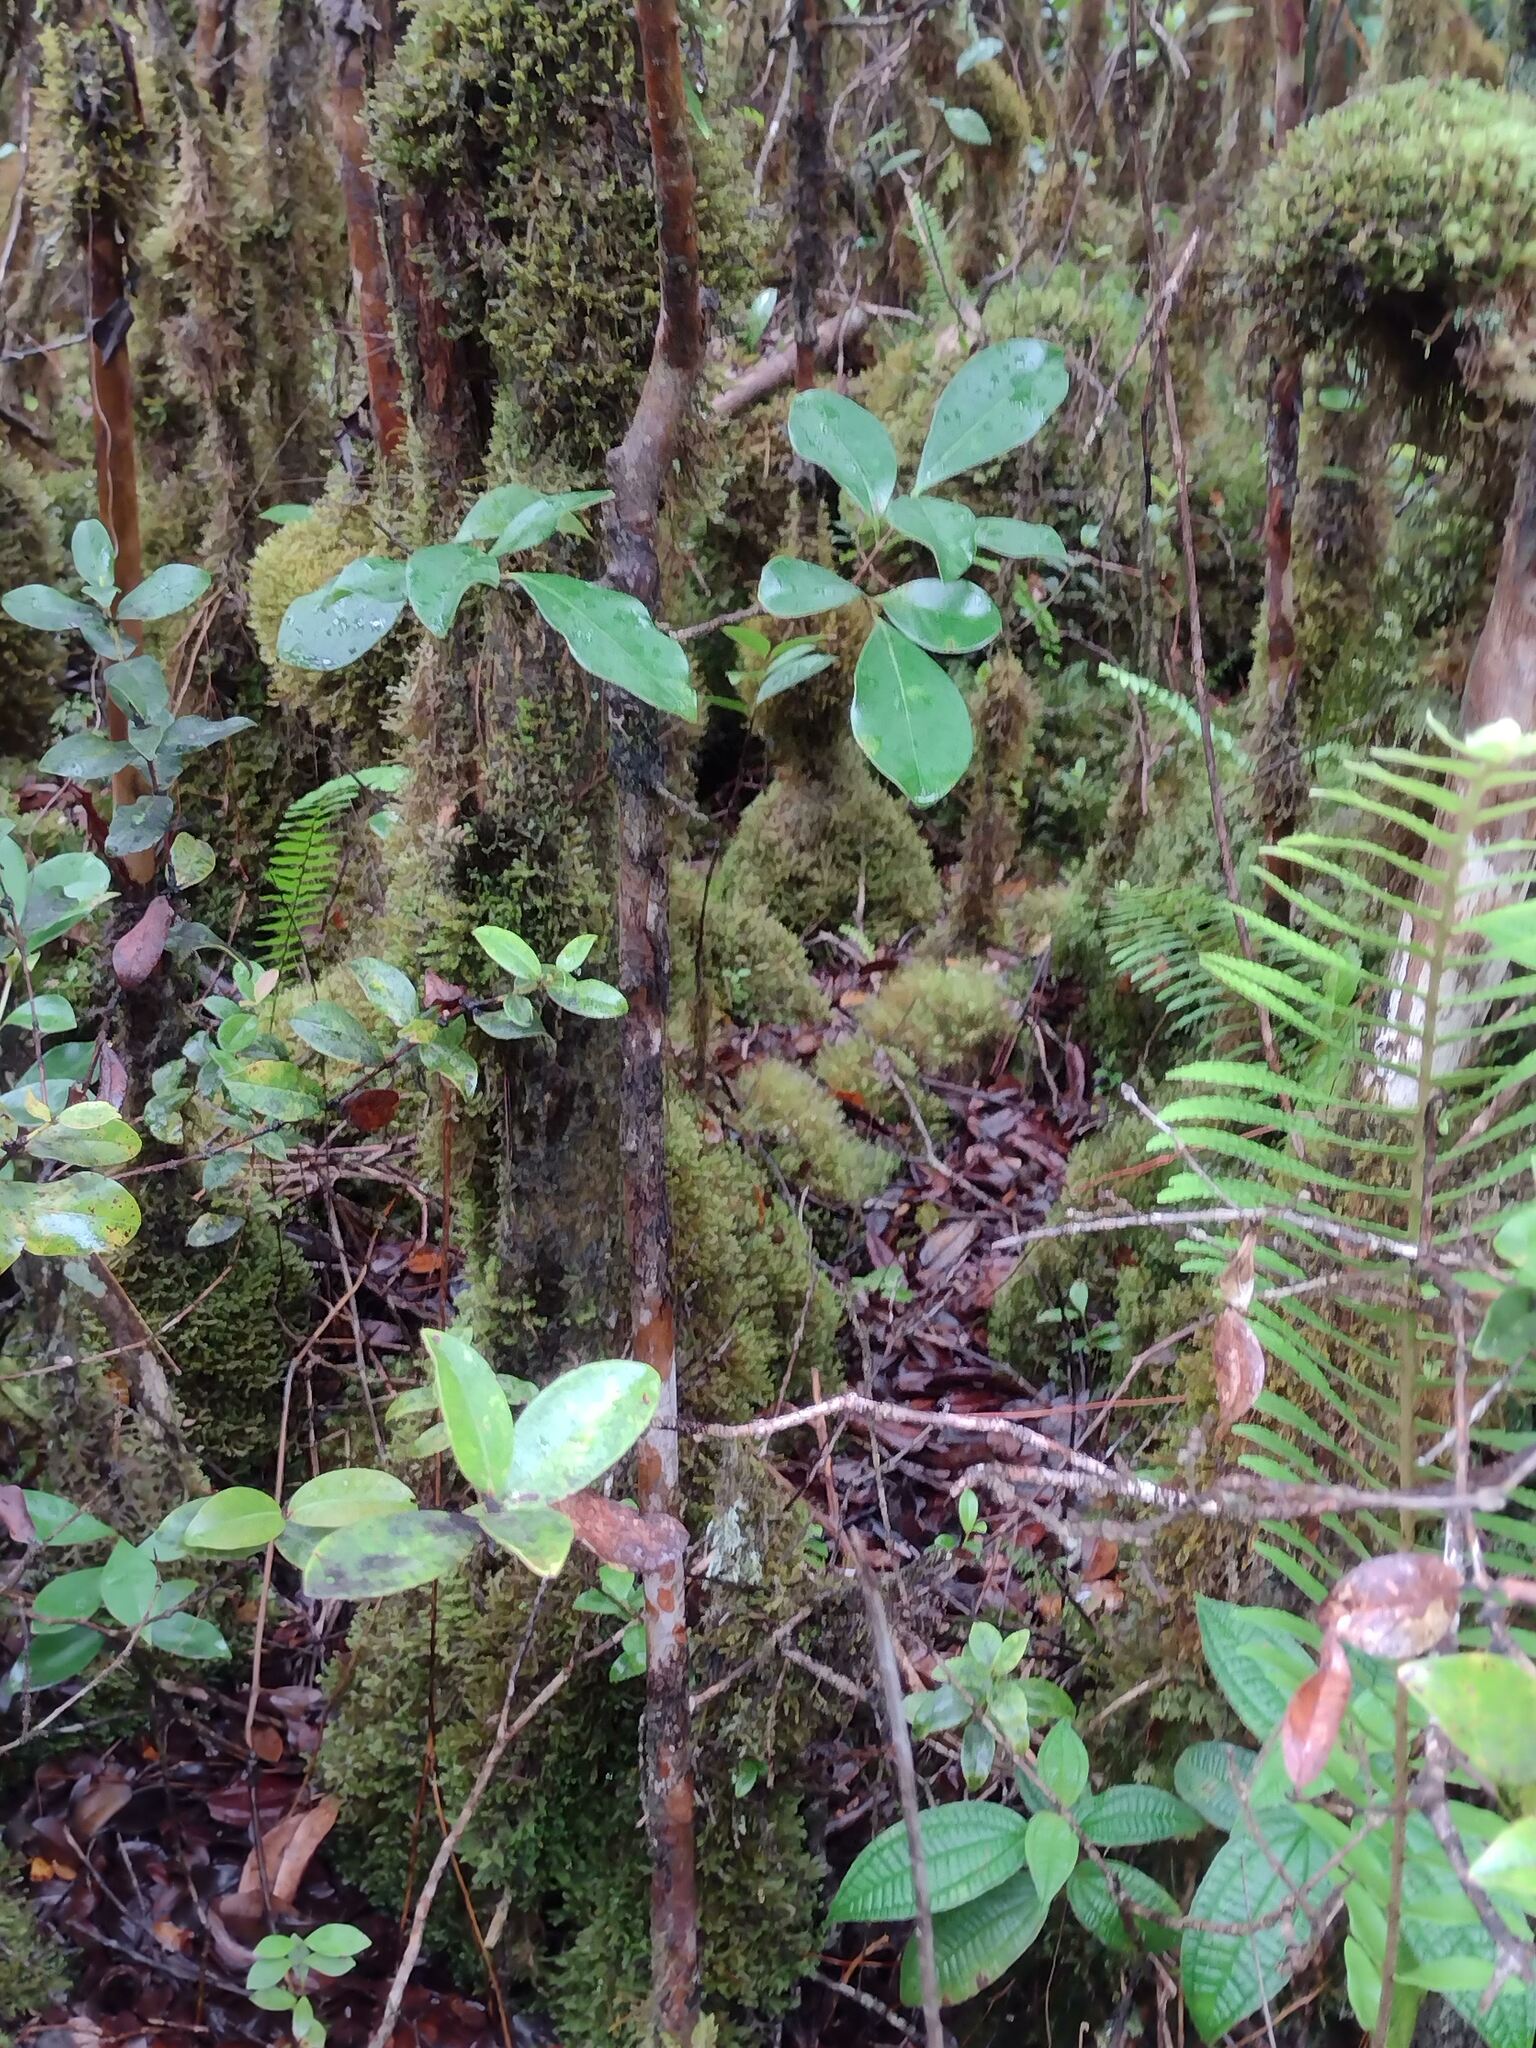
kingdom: Plantae
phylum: Tracheophyta
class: Magnoliopsida
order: Myrtales
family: Myrtaceae
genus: Psidium
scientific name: Psidium cattleianum
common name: Strawberry guava
